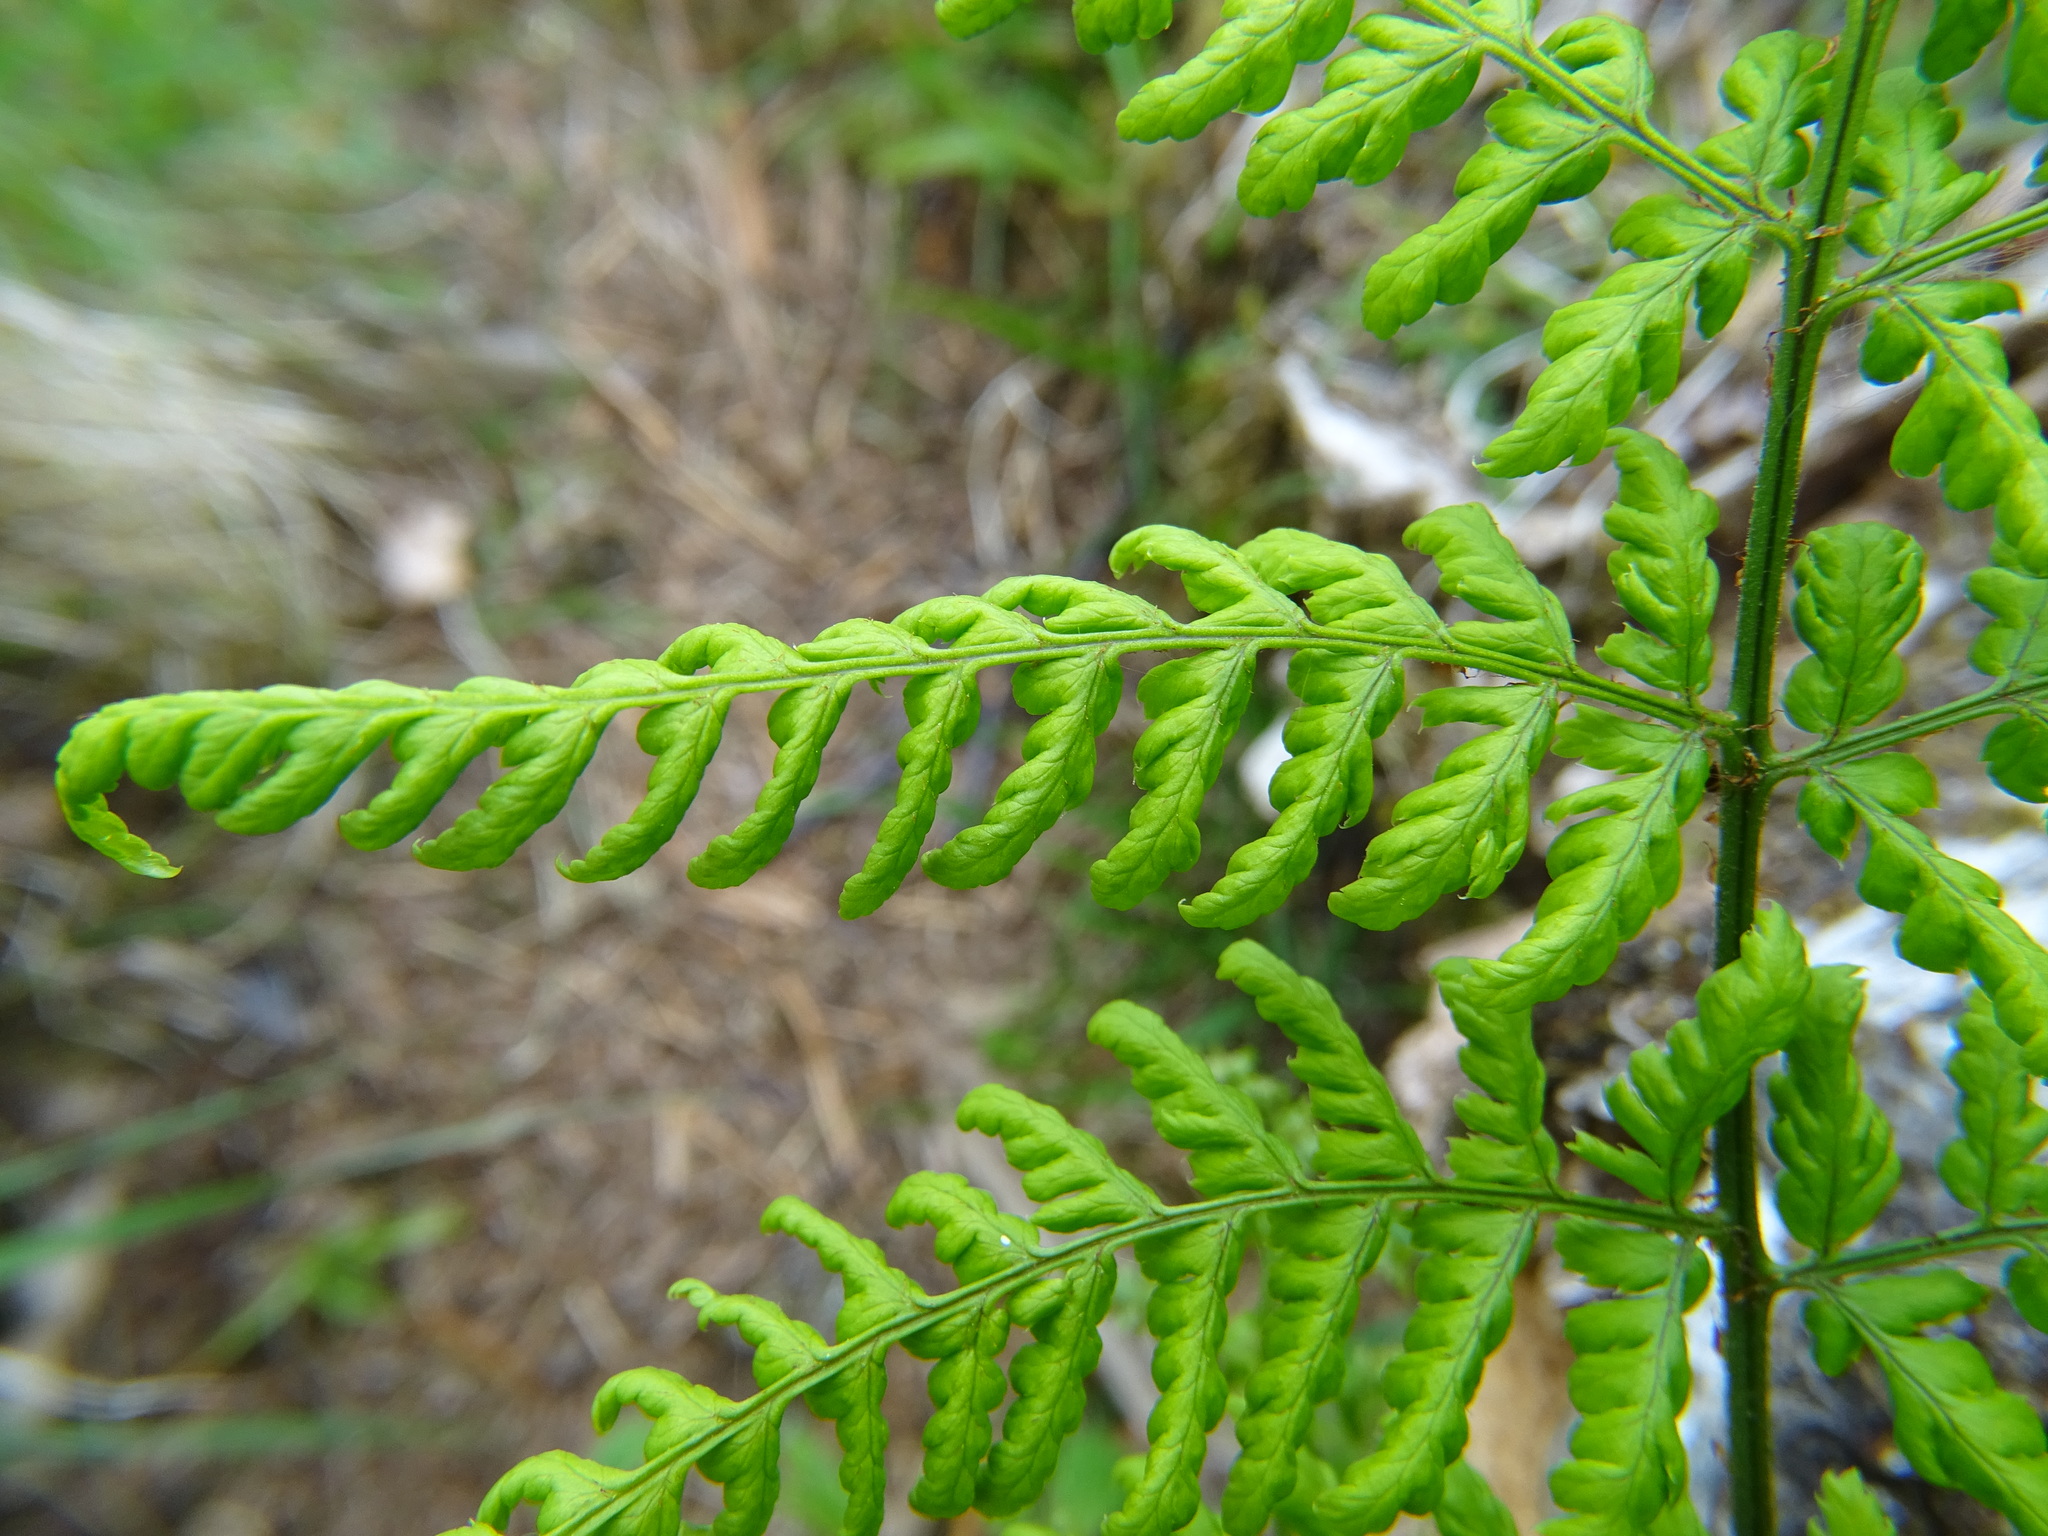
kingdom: Plantae
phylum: Tracheophyta
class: Polypodiopsida
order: Polypodiales
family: Dryopteridaceae
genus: Dryopteris
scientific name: Dryopteris dilatata
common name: Broad buckler-fern
